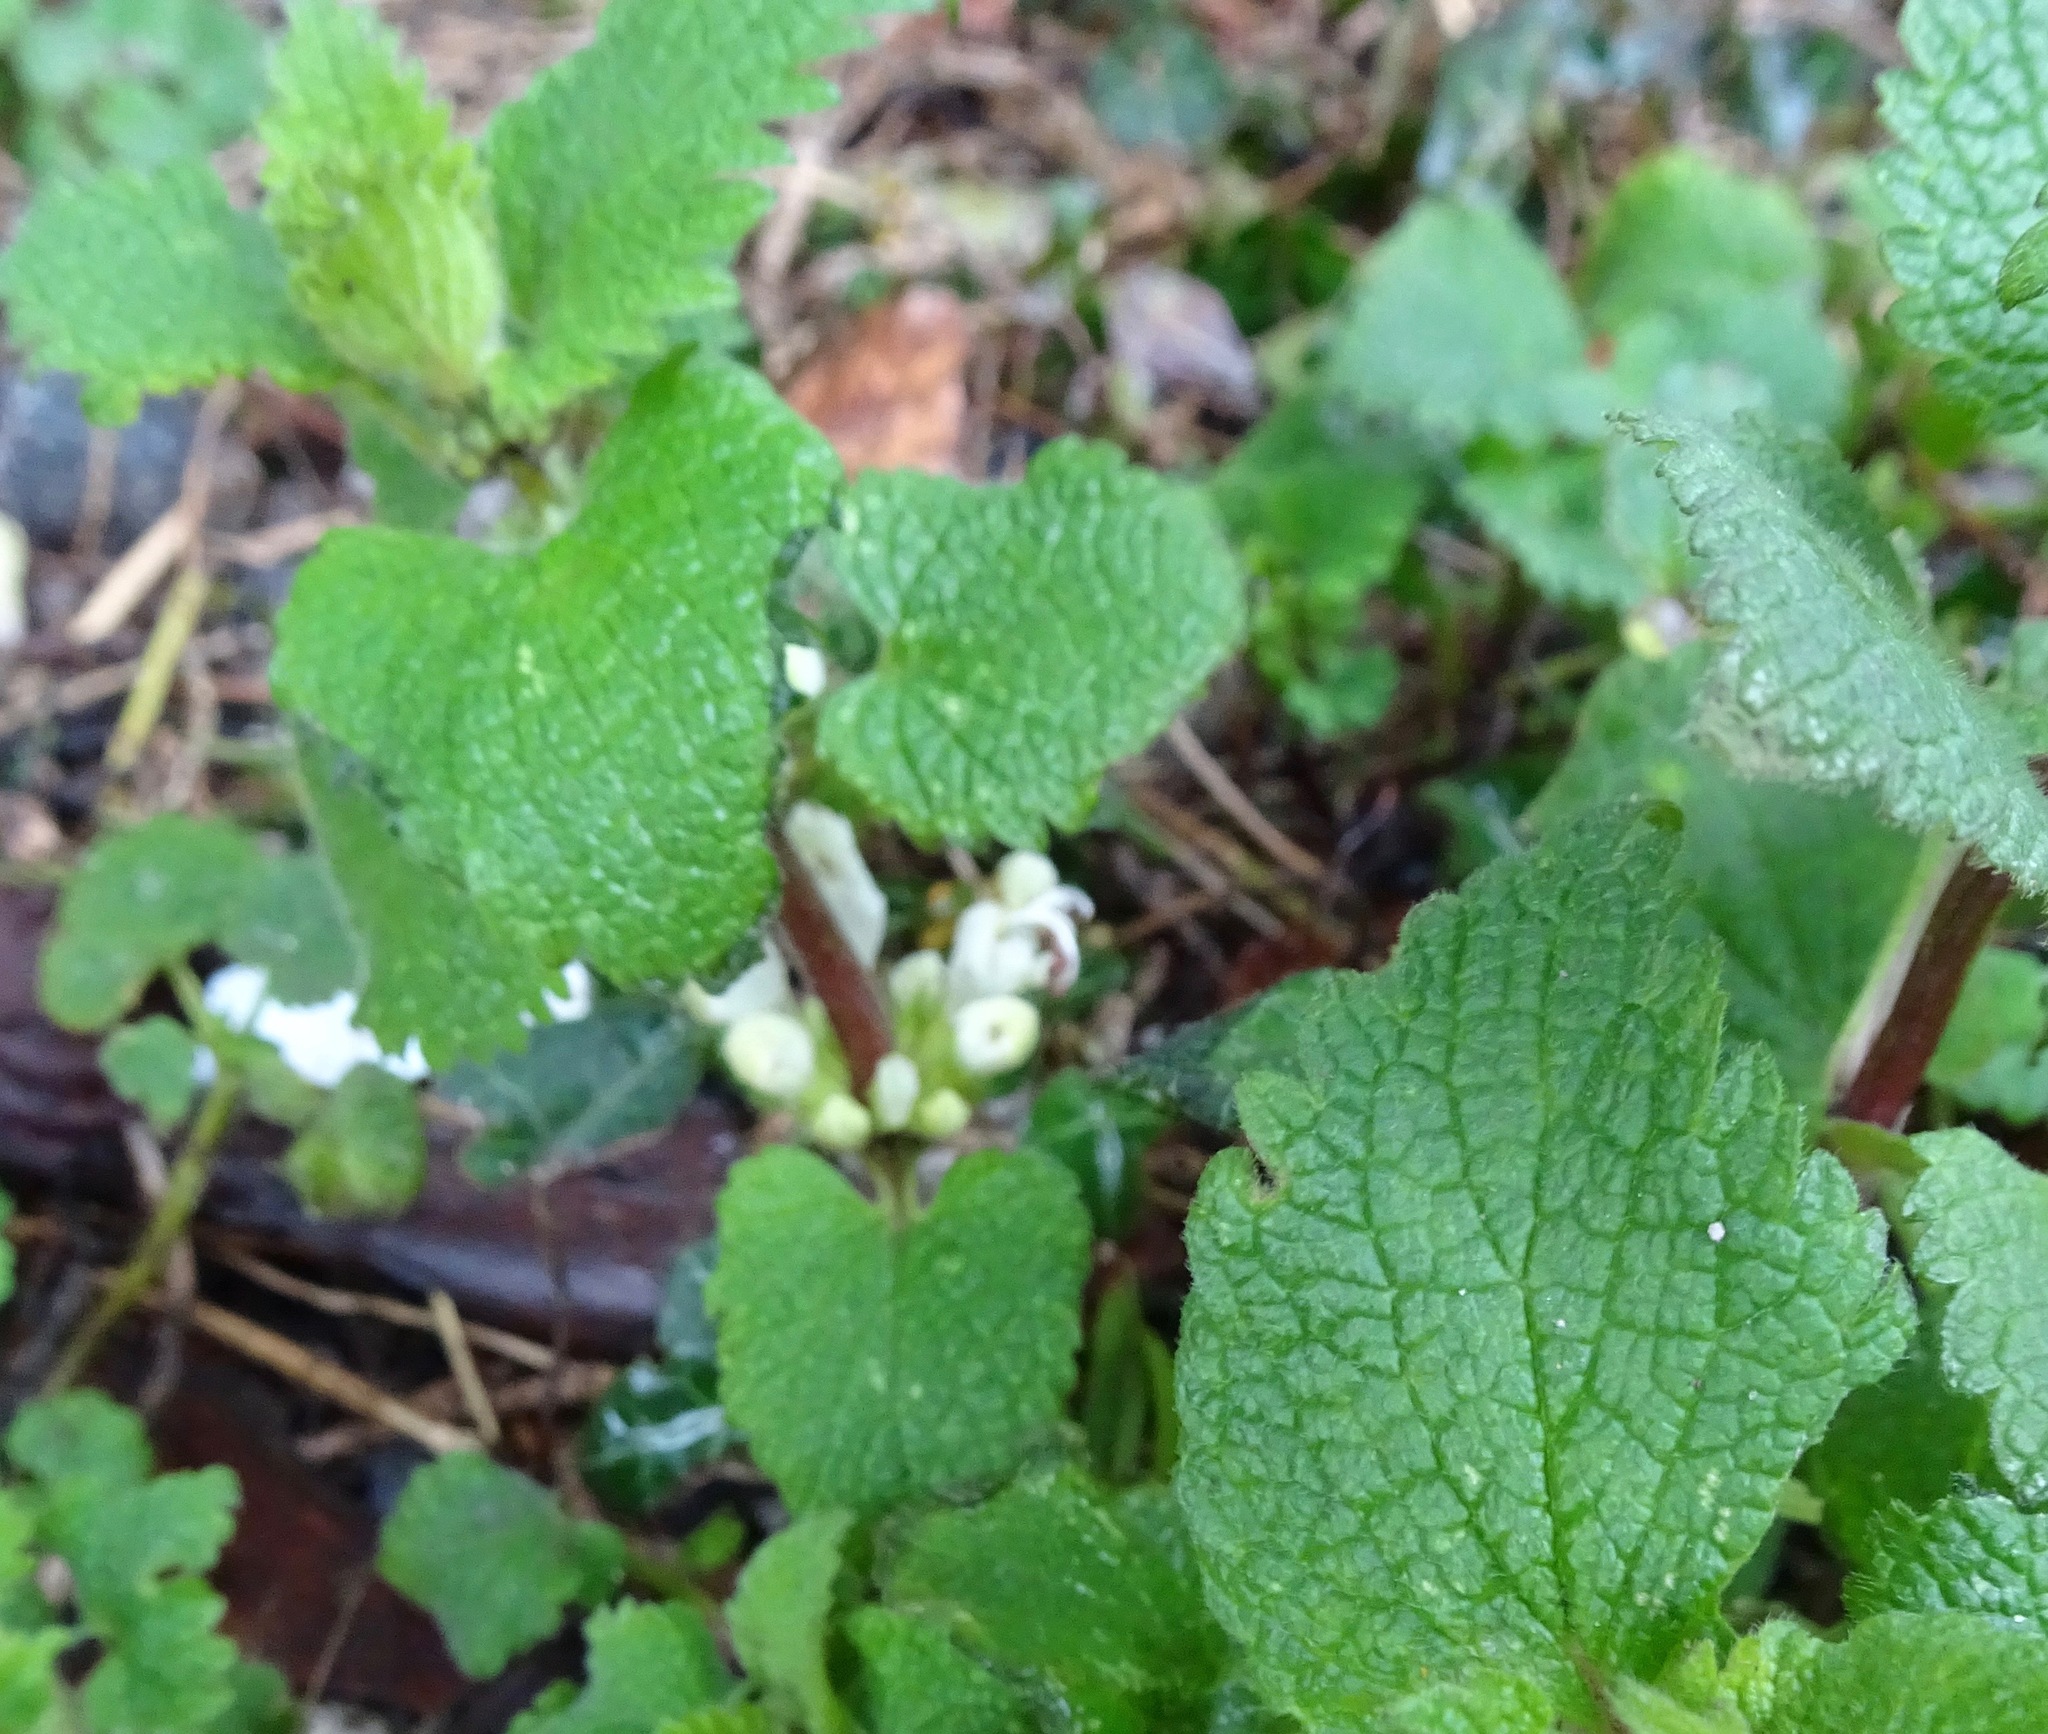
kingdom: Plantae
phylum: Tracheophyta
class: Magnoliopsida
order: Lamiales
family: Lamiaceae
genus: Lamium
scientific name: Lamium album
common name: White dead-nettle
